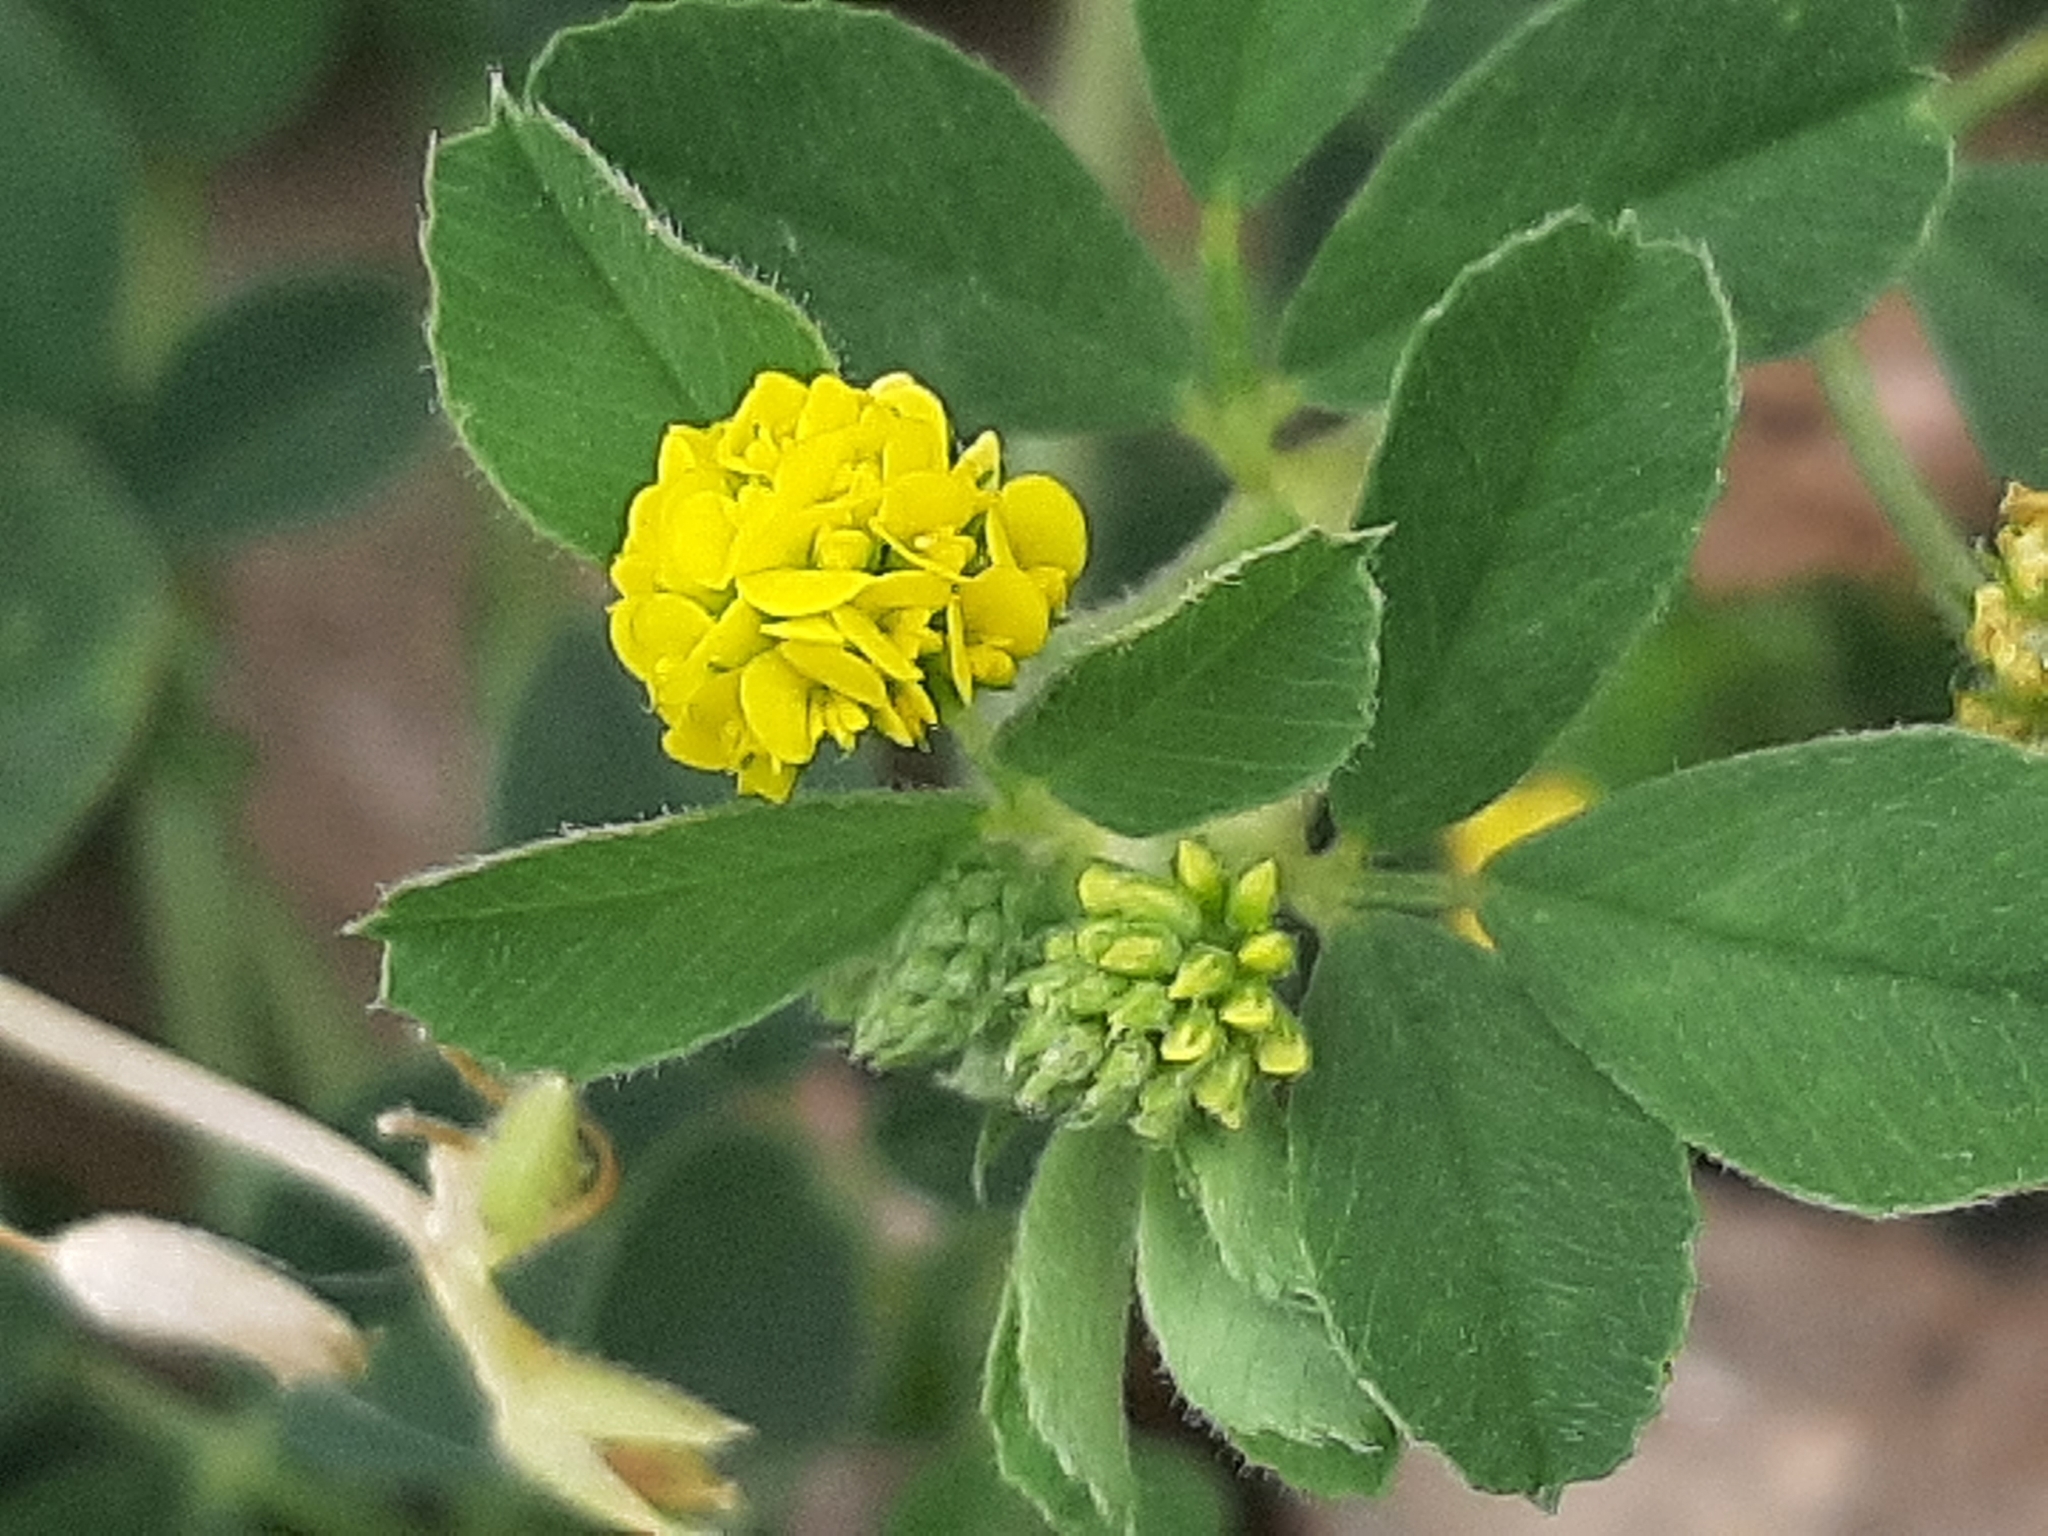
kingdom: Plantae
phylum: Tracheophyta
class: Magnoliopsida
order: Fabales
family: Fabaceae
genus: Medicago
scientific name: Medicago lupulina
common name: Black medick
